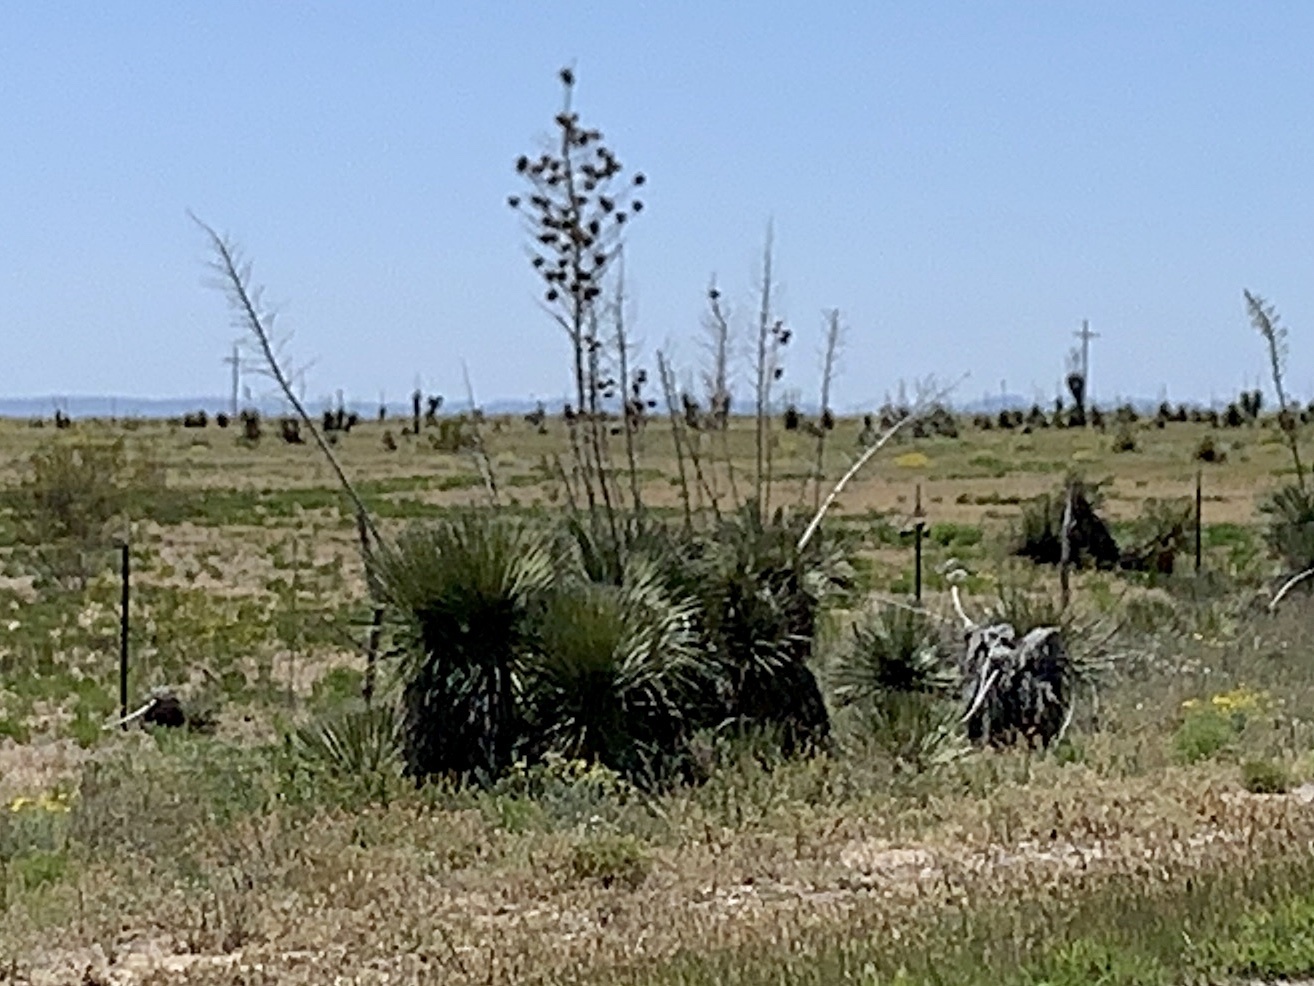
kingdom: Plantae
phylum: Tracheophyta
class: Liliopsida
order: Asparagales
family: Asparagaceae
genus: Yucca
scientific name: Yucca elata
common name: Palmella
